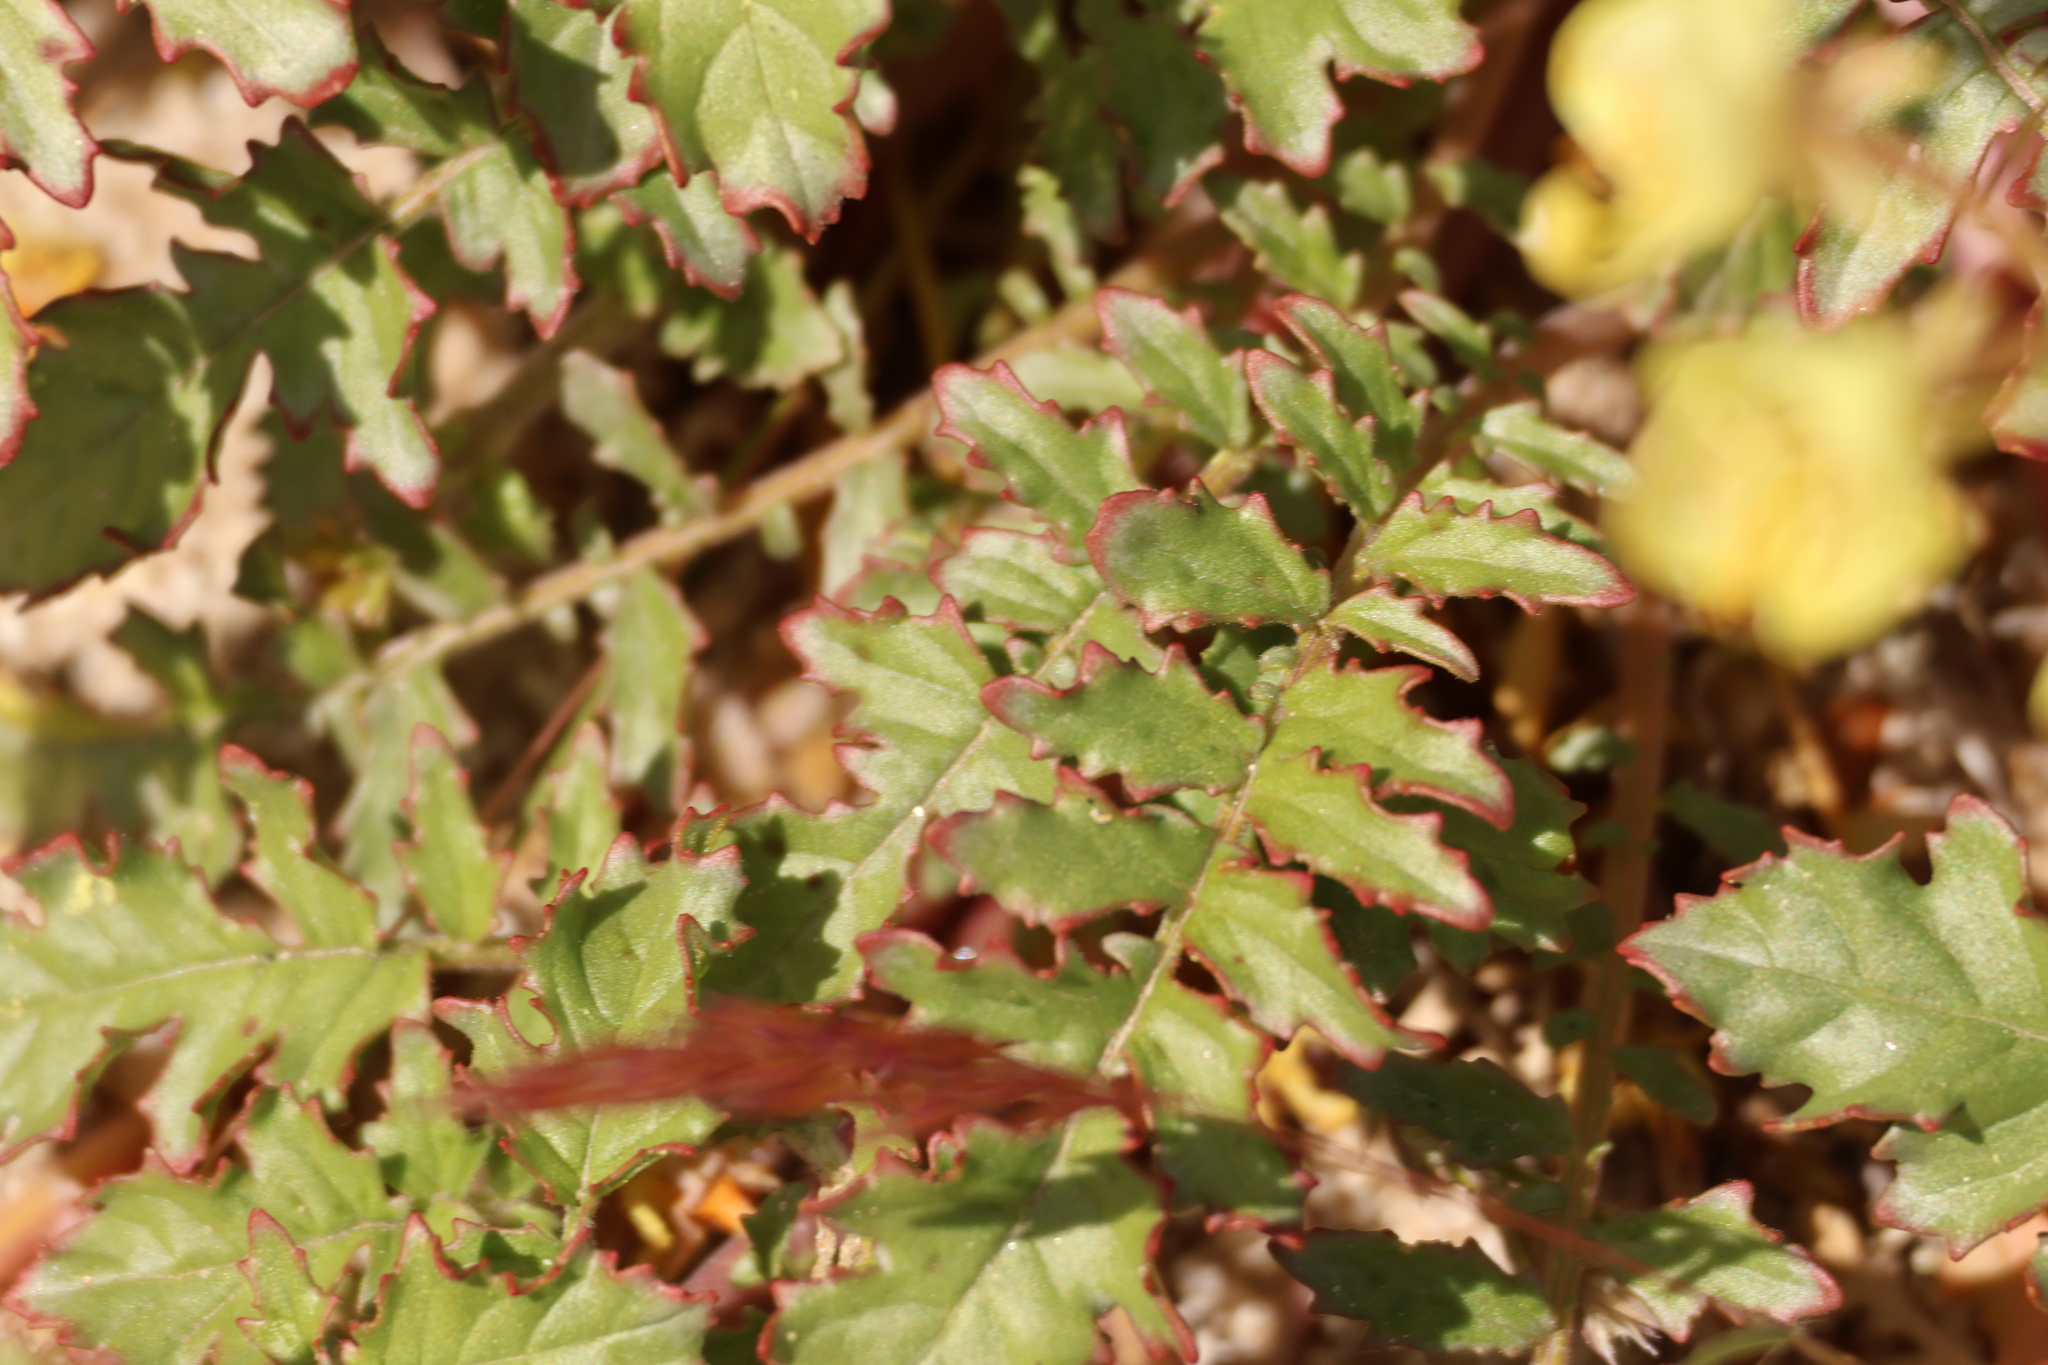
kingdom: Plantae
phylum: Tracheophyta
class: Magnoliopsida
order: Myrtales
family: Onagraceae
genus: Chylismia
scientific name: Chylismia claviformis
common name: Browneyes
